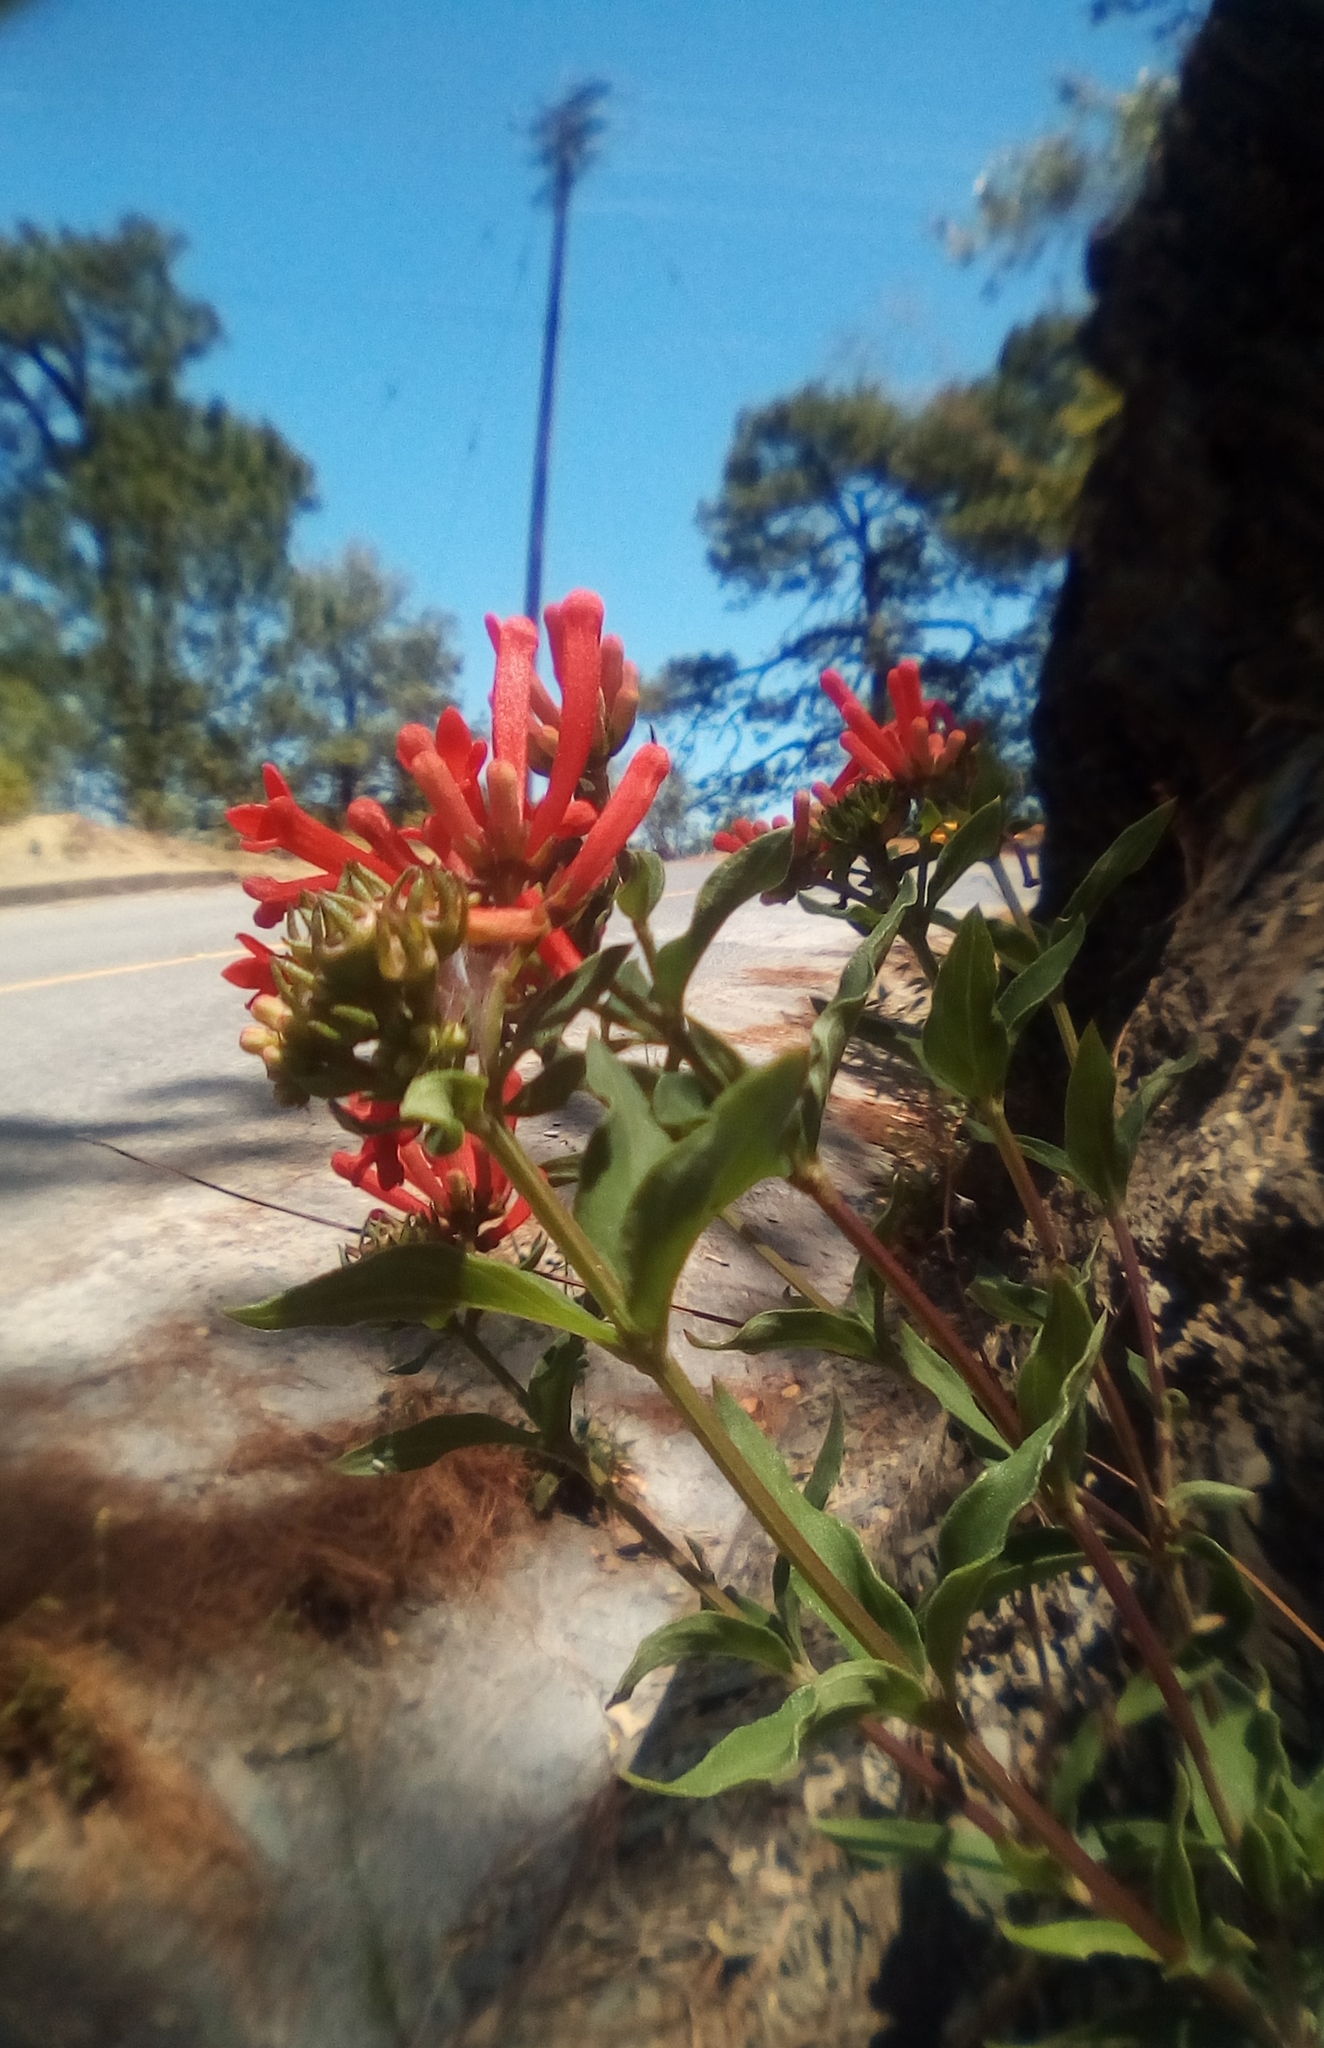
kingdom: Plantae
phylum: Tracheophyta
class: Magnoliopsida
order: Gentianales
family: Rubiaceae
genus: Bouvardia
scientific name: Bouvardia ternifolia
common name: Scarlet bouvardia
